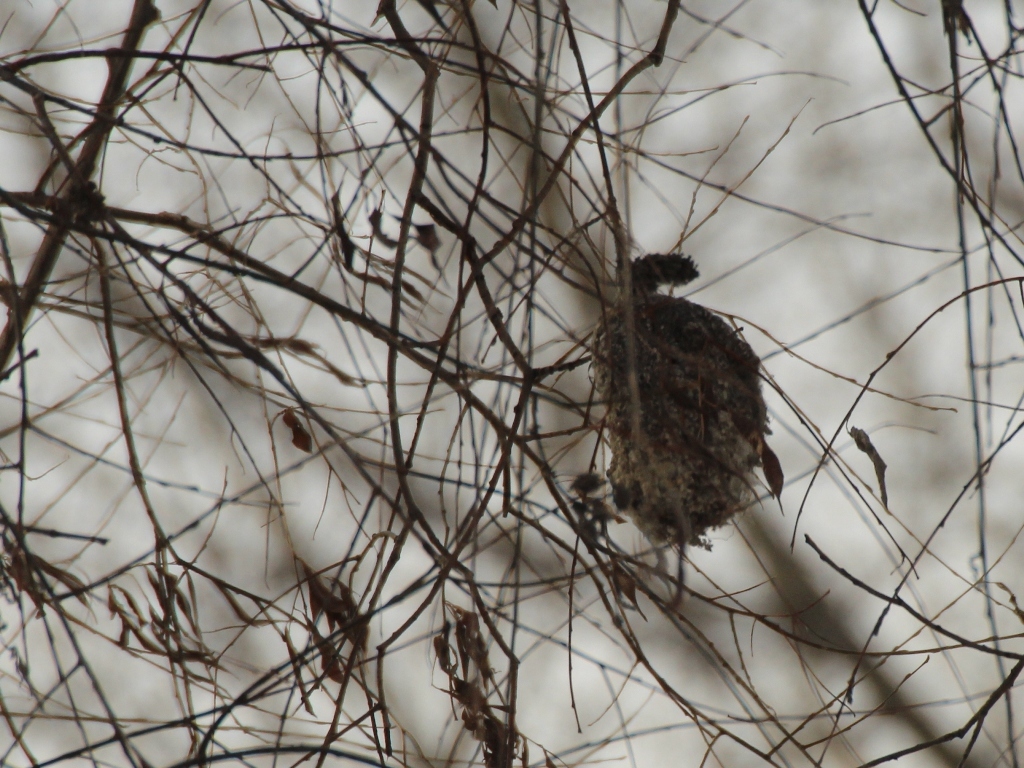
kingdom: Animalia
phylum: Chordata
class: Aves
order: Passeriformes
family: Remizidae
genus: Remiz
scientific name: Remiz pendulinus
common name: Eurasian penduline tit
